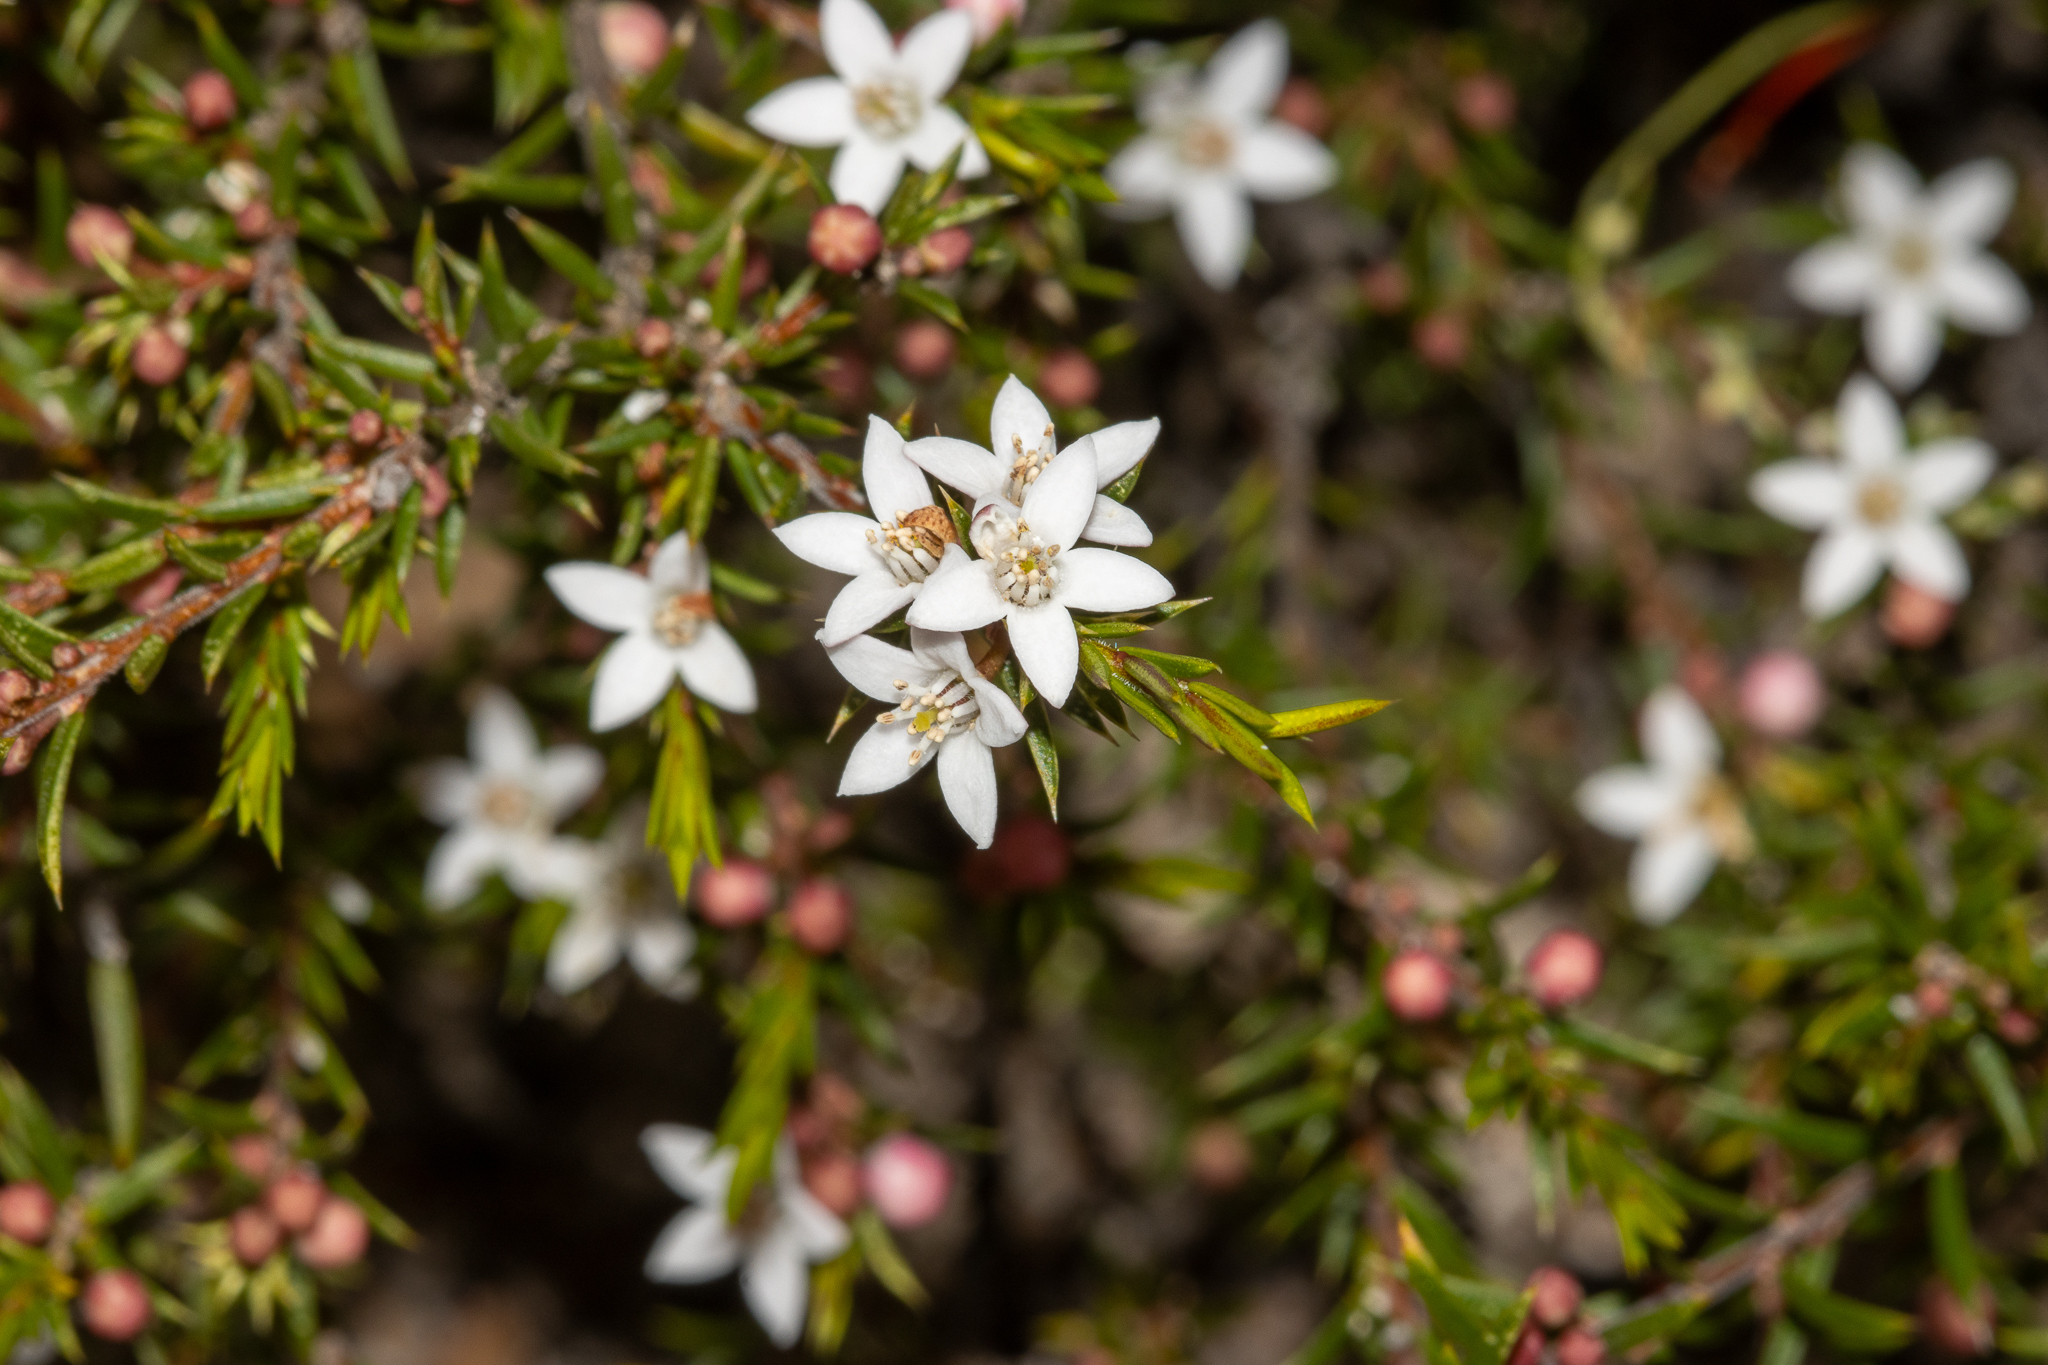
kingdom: Plantae
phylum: Tracheophyta
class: Magnoliopsida
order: Sapindales
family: Rutaceae
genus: Philotheca
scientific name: Philotheca pungens
